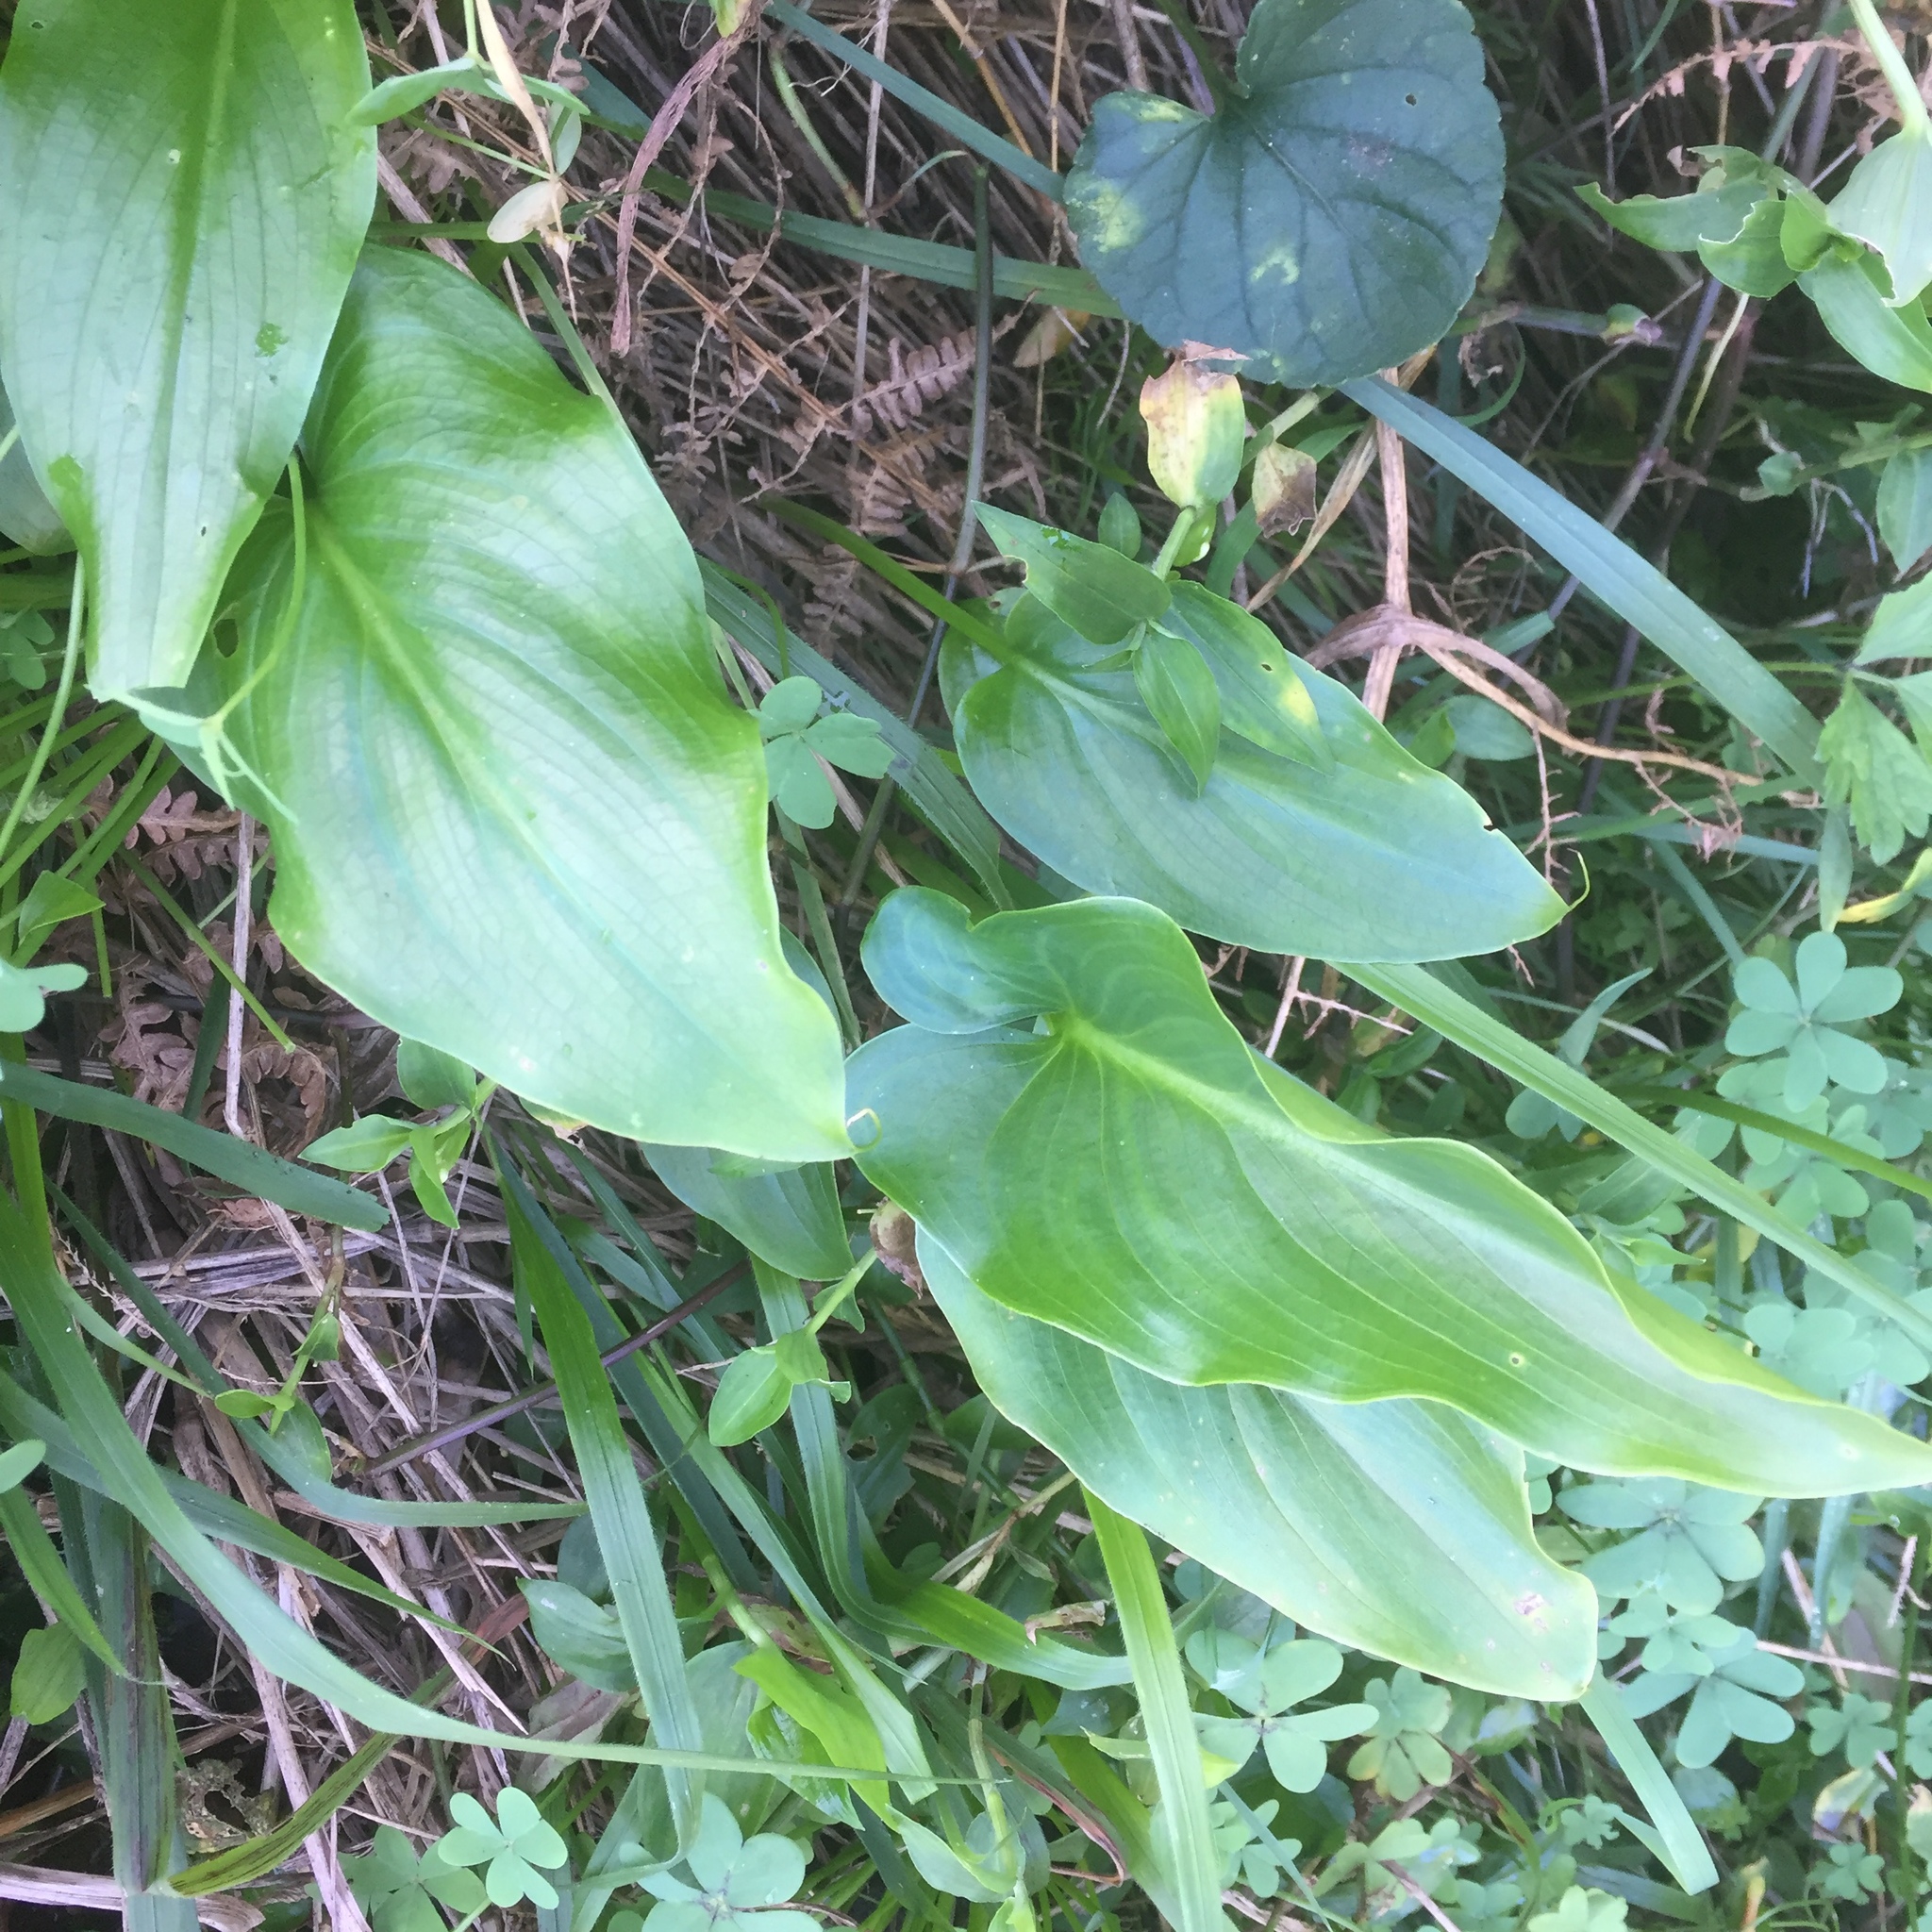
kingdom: Plantae
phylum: Tracheophyta
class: Liliopsida
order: Alismatales
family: Araceae
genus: Zantedeschia
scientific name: Zantedeschia aethiopica
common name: Altar-lily
